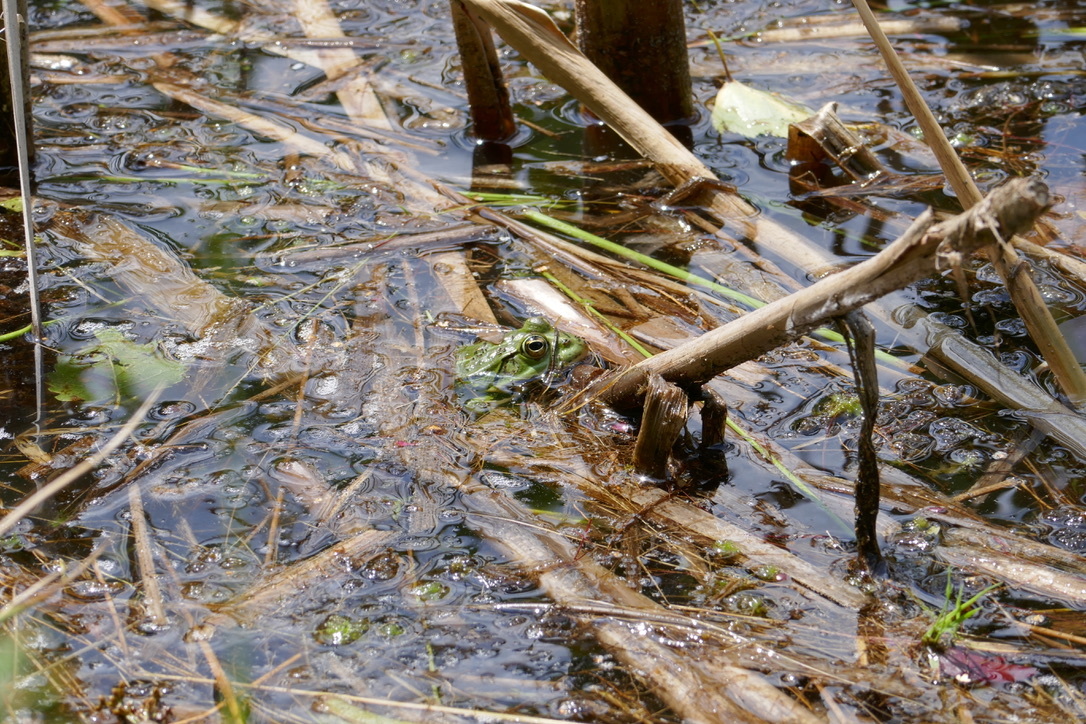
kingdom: Animalia
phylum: Chordata
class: Amphibia
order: Anura
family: Ranidae
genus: Pelophylax
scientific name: Pelophylax
